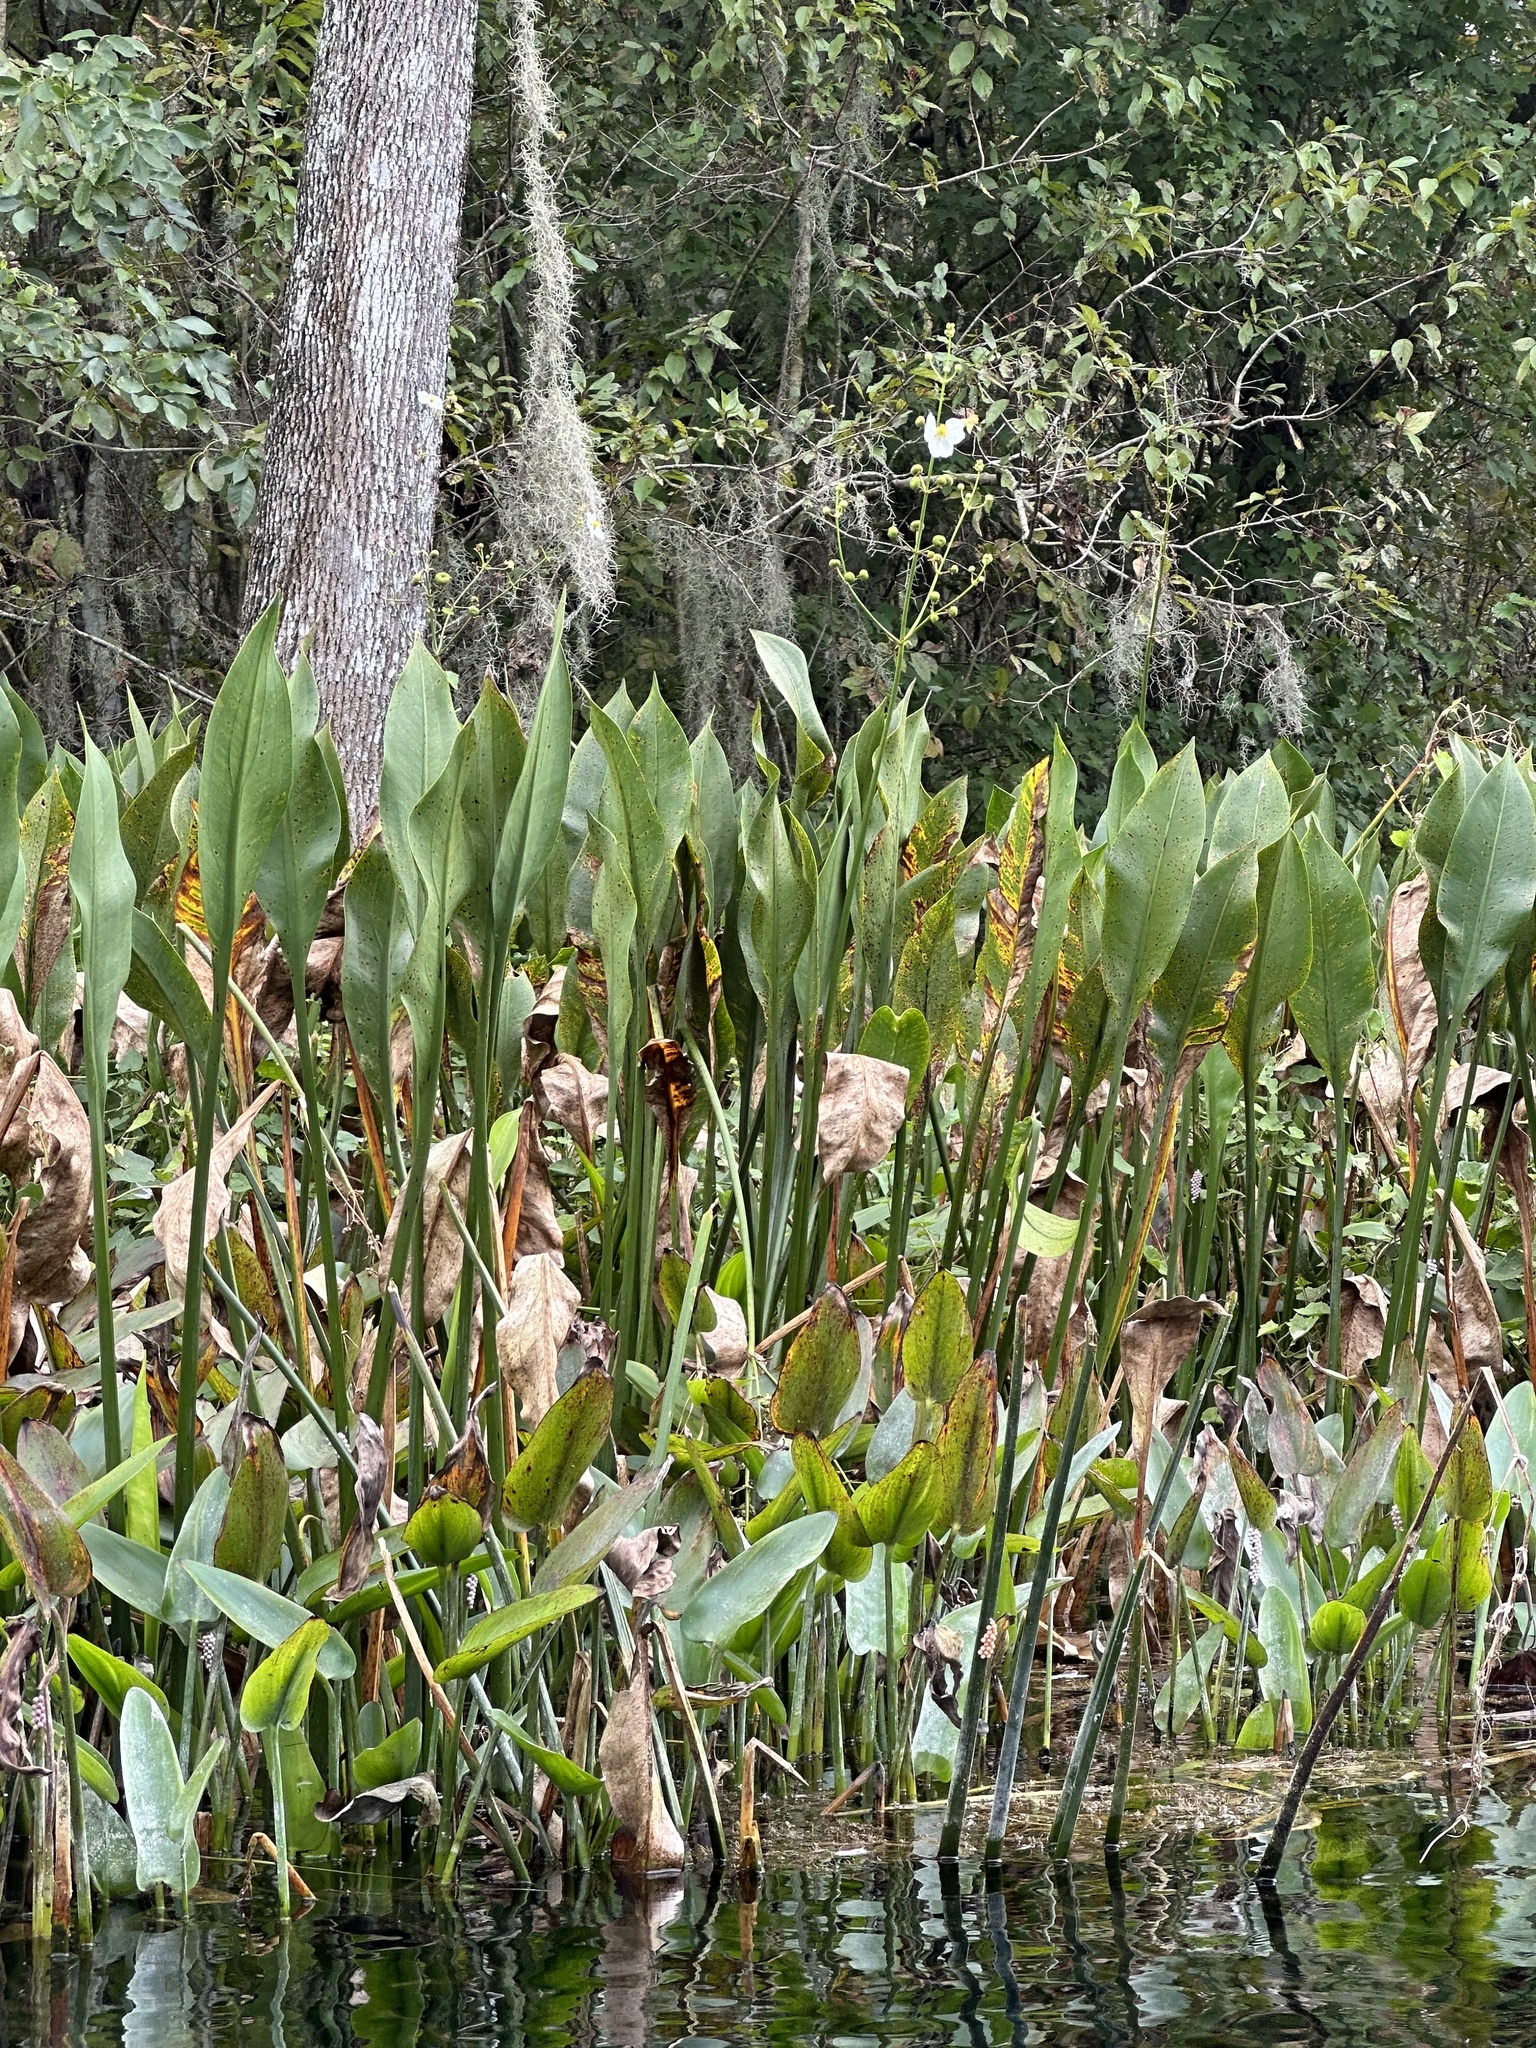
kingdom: Plantae
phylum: Tracheophyta
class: Liliopsida
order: Alismatales
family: Alismataceae
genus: Sagittaria
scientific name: Sagittaria lancifolia
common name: Lance-leaf arrowhead
